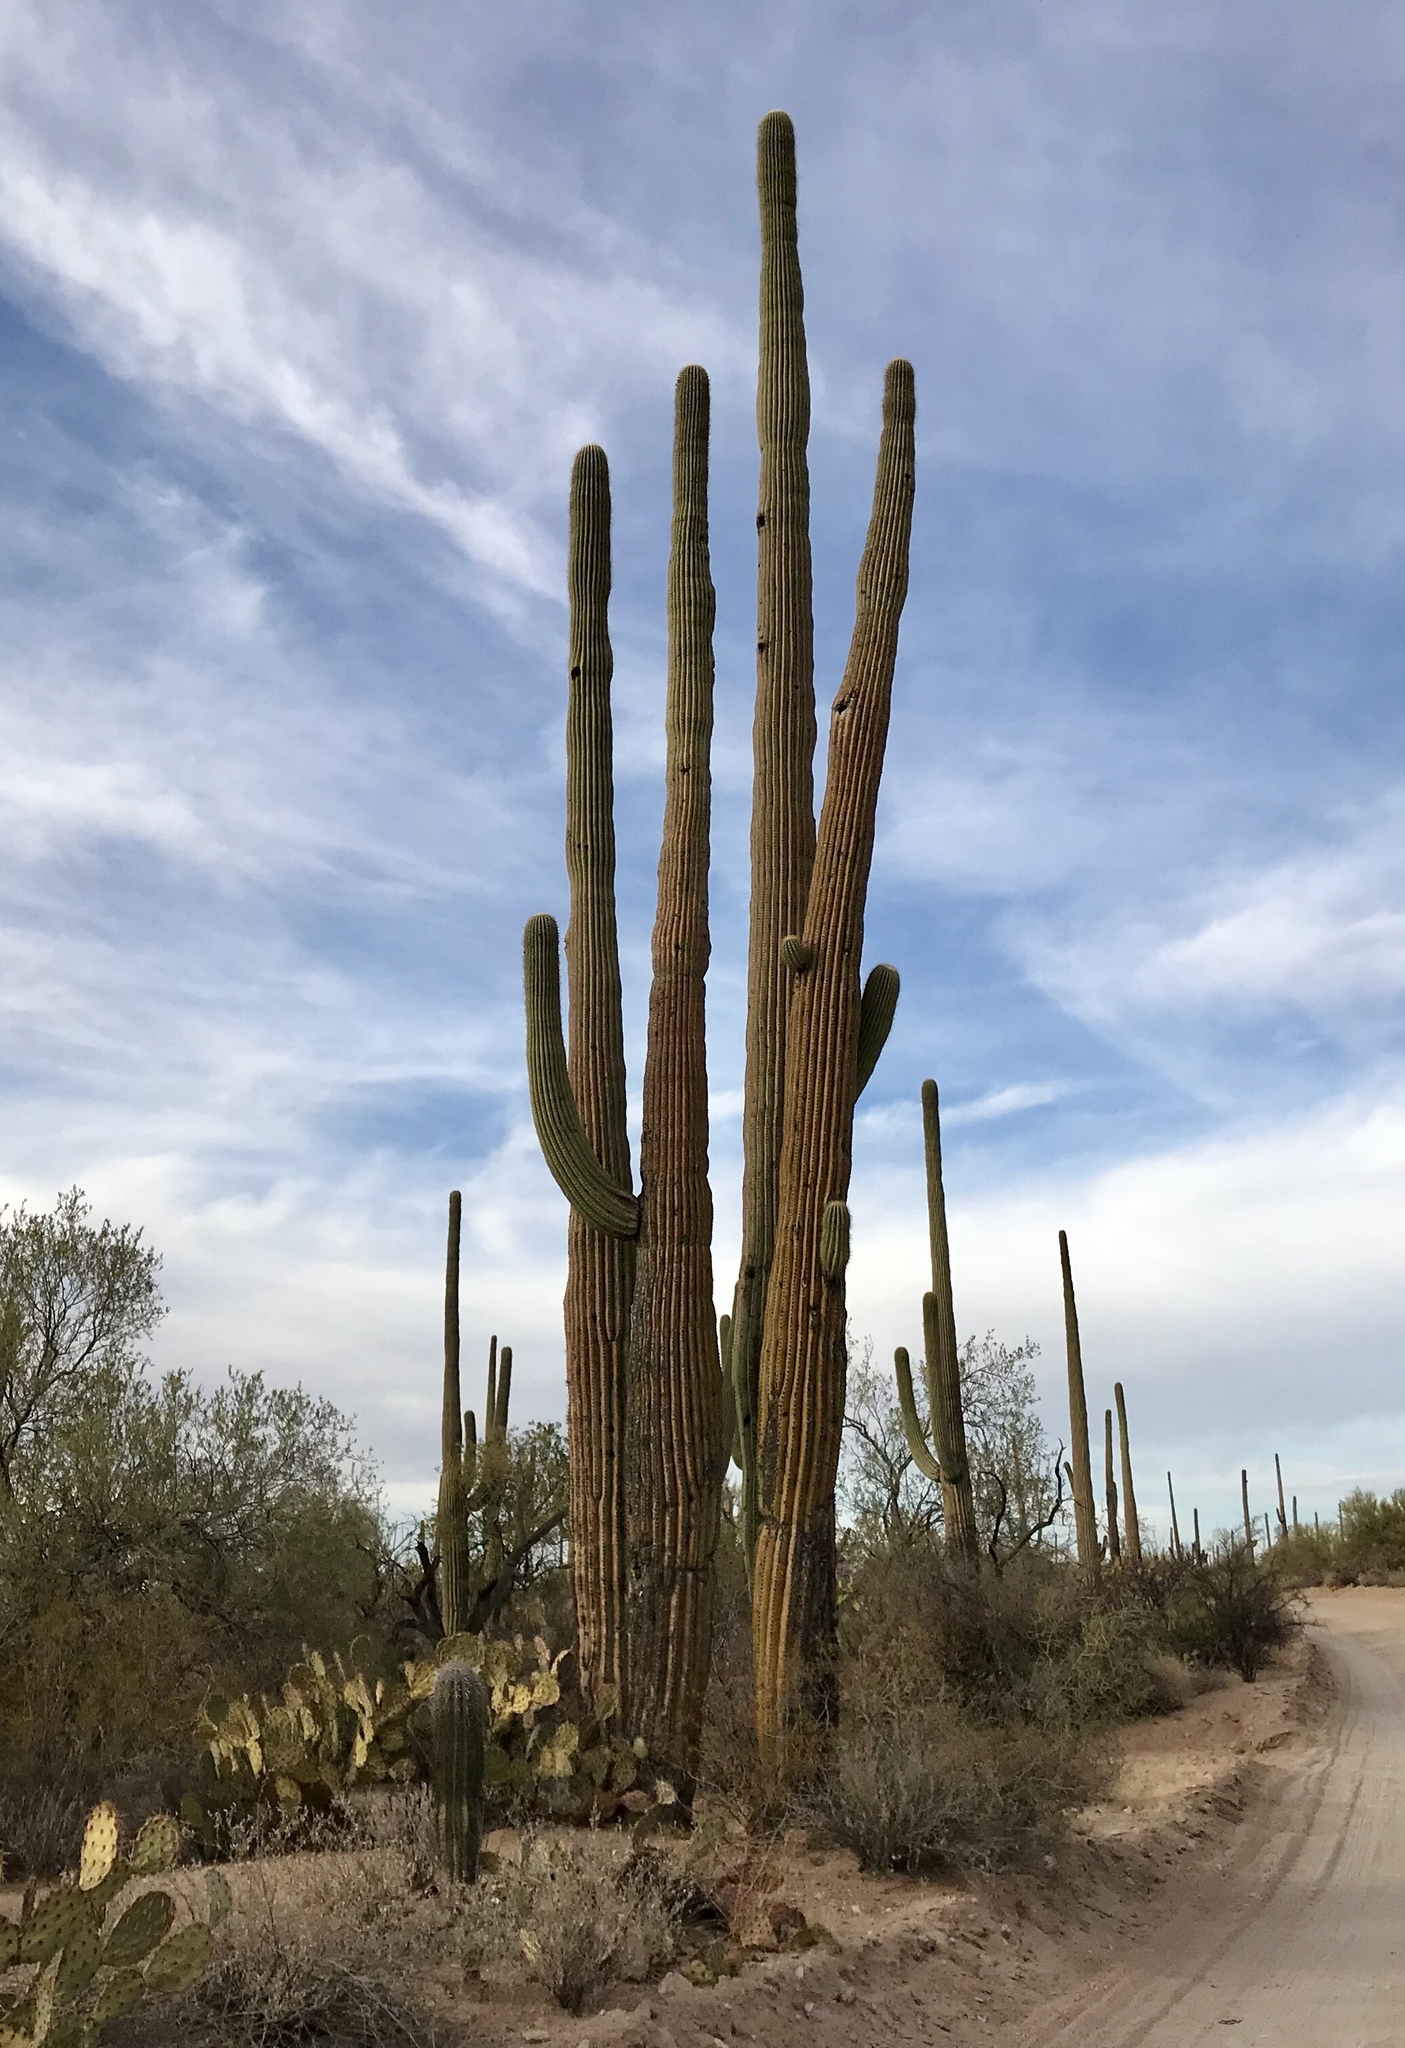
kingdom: Plantae
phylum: Tracheophyta
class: Magnoliopsida
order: Caryophyllales
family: Cactaceae
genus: Carnegiea
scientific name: Carnegiea gigantea
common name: Saguaro
